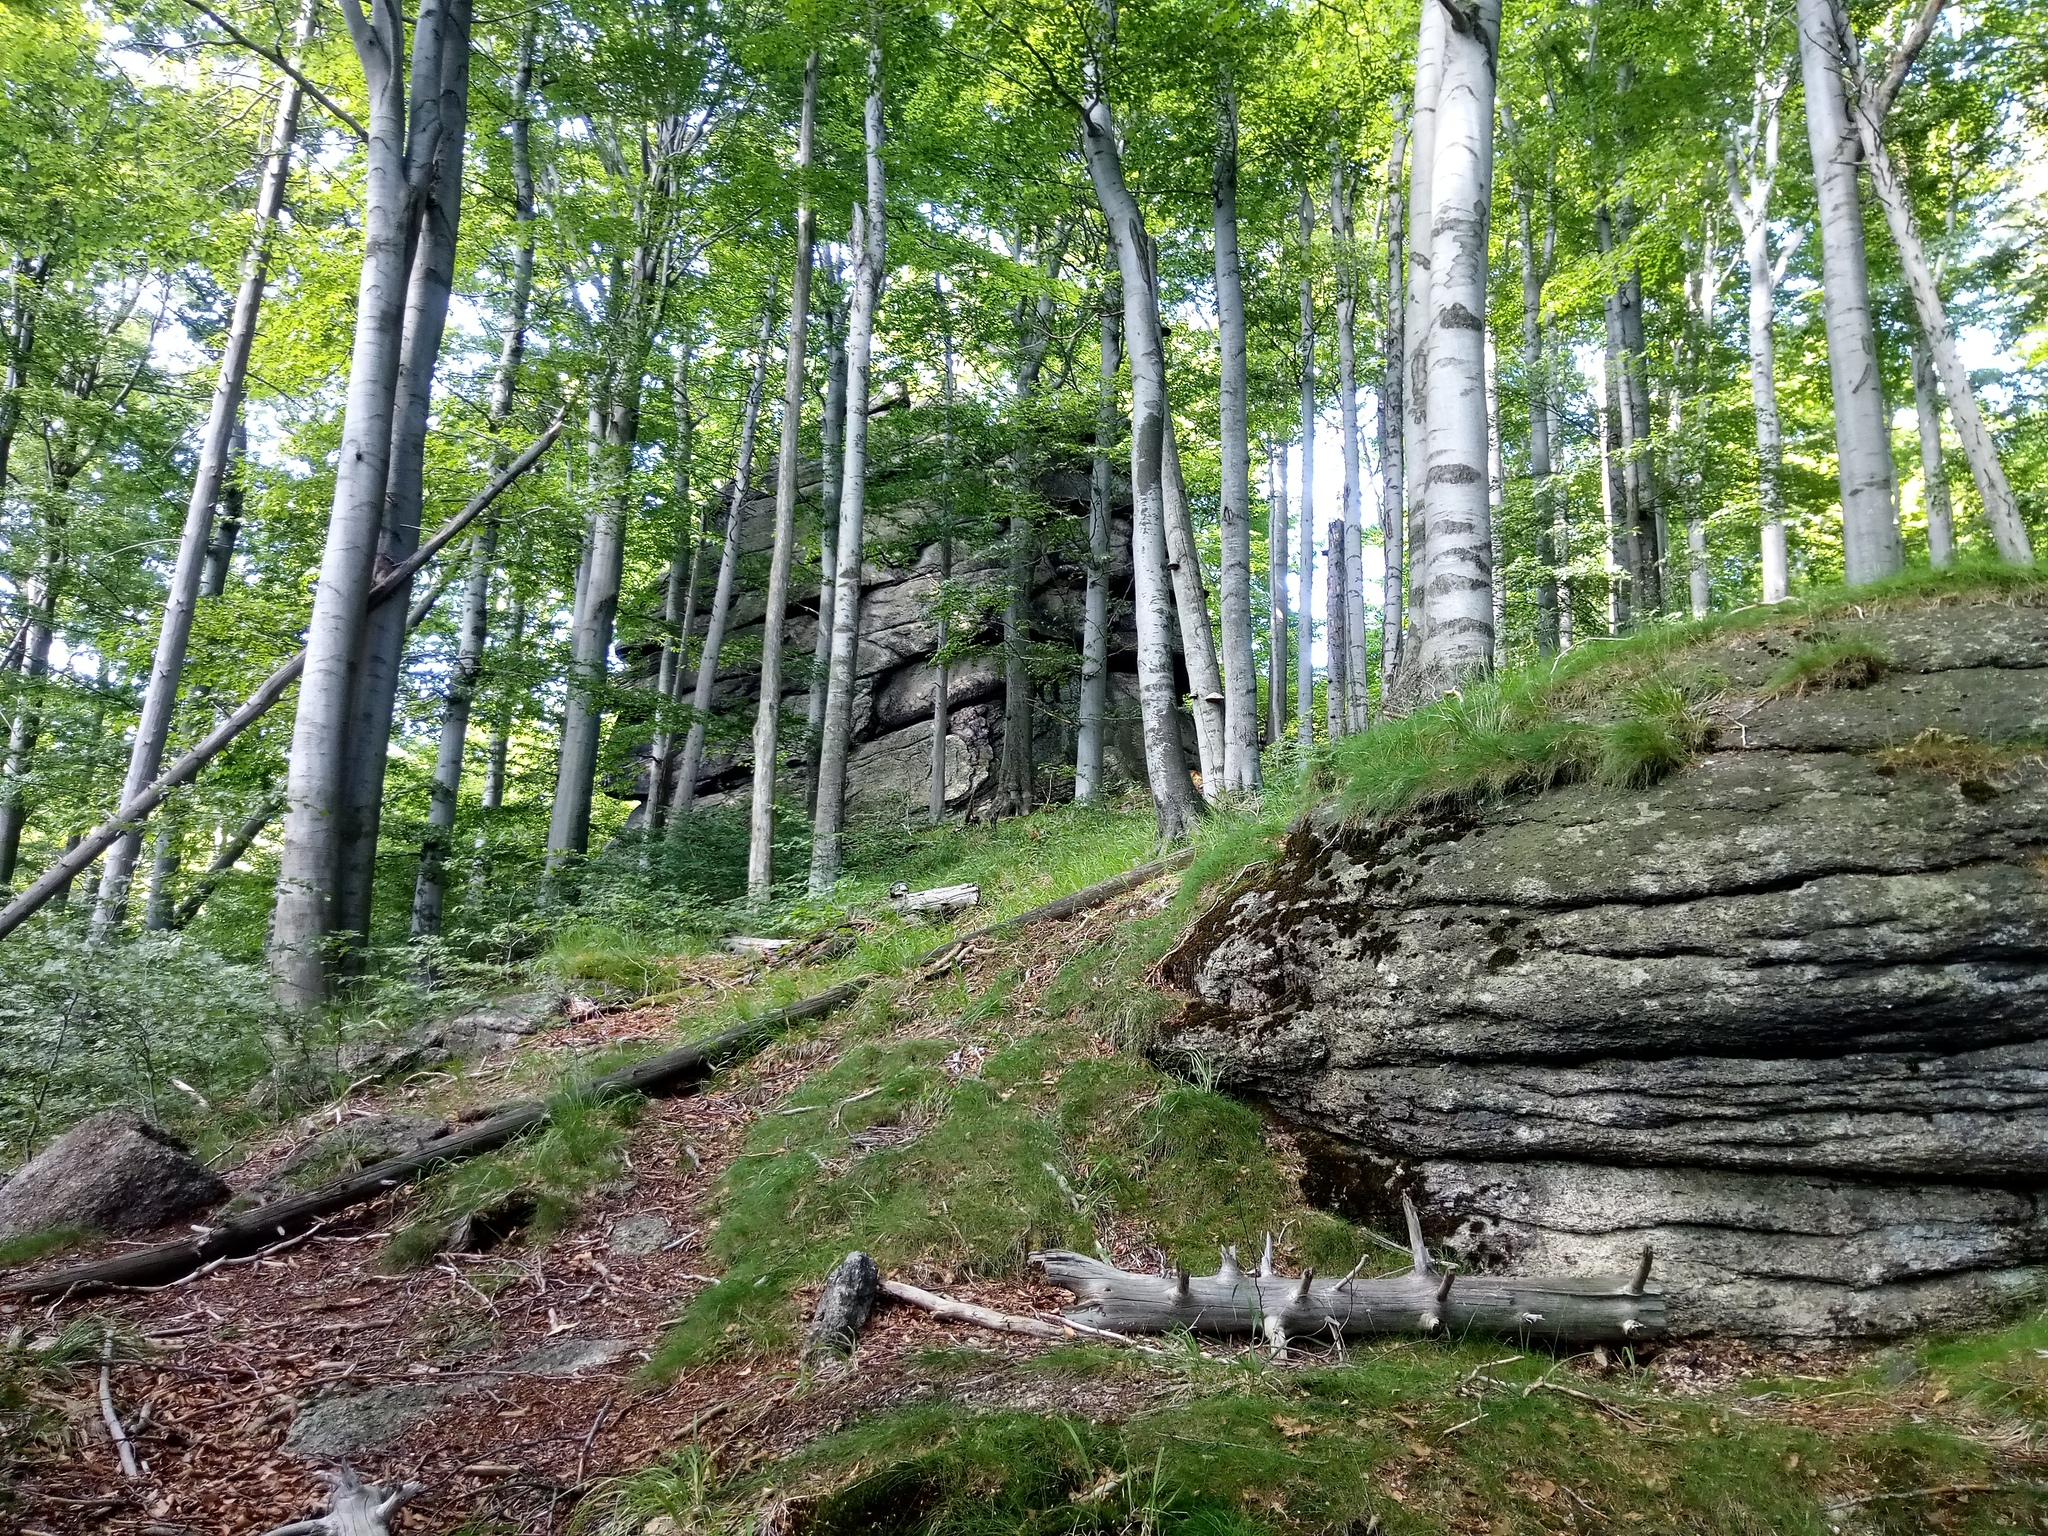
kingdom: Plantae
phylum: Tracheophyta
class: Magnoliopsida
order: Fagales
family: Fagaceae
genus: Fagus
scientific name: Fagus sylvatica
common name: Beech
